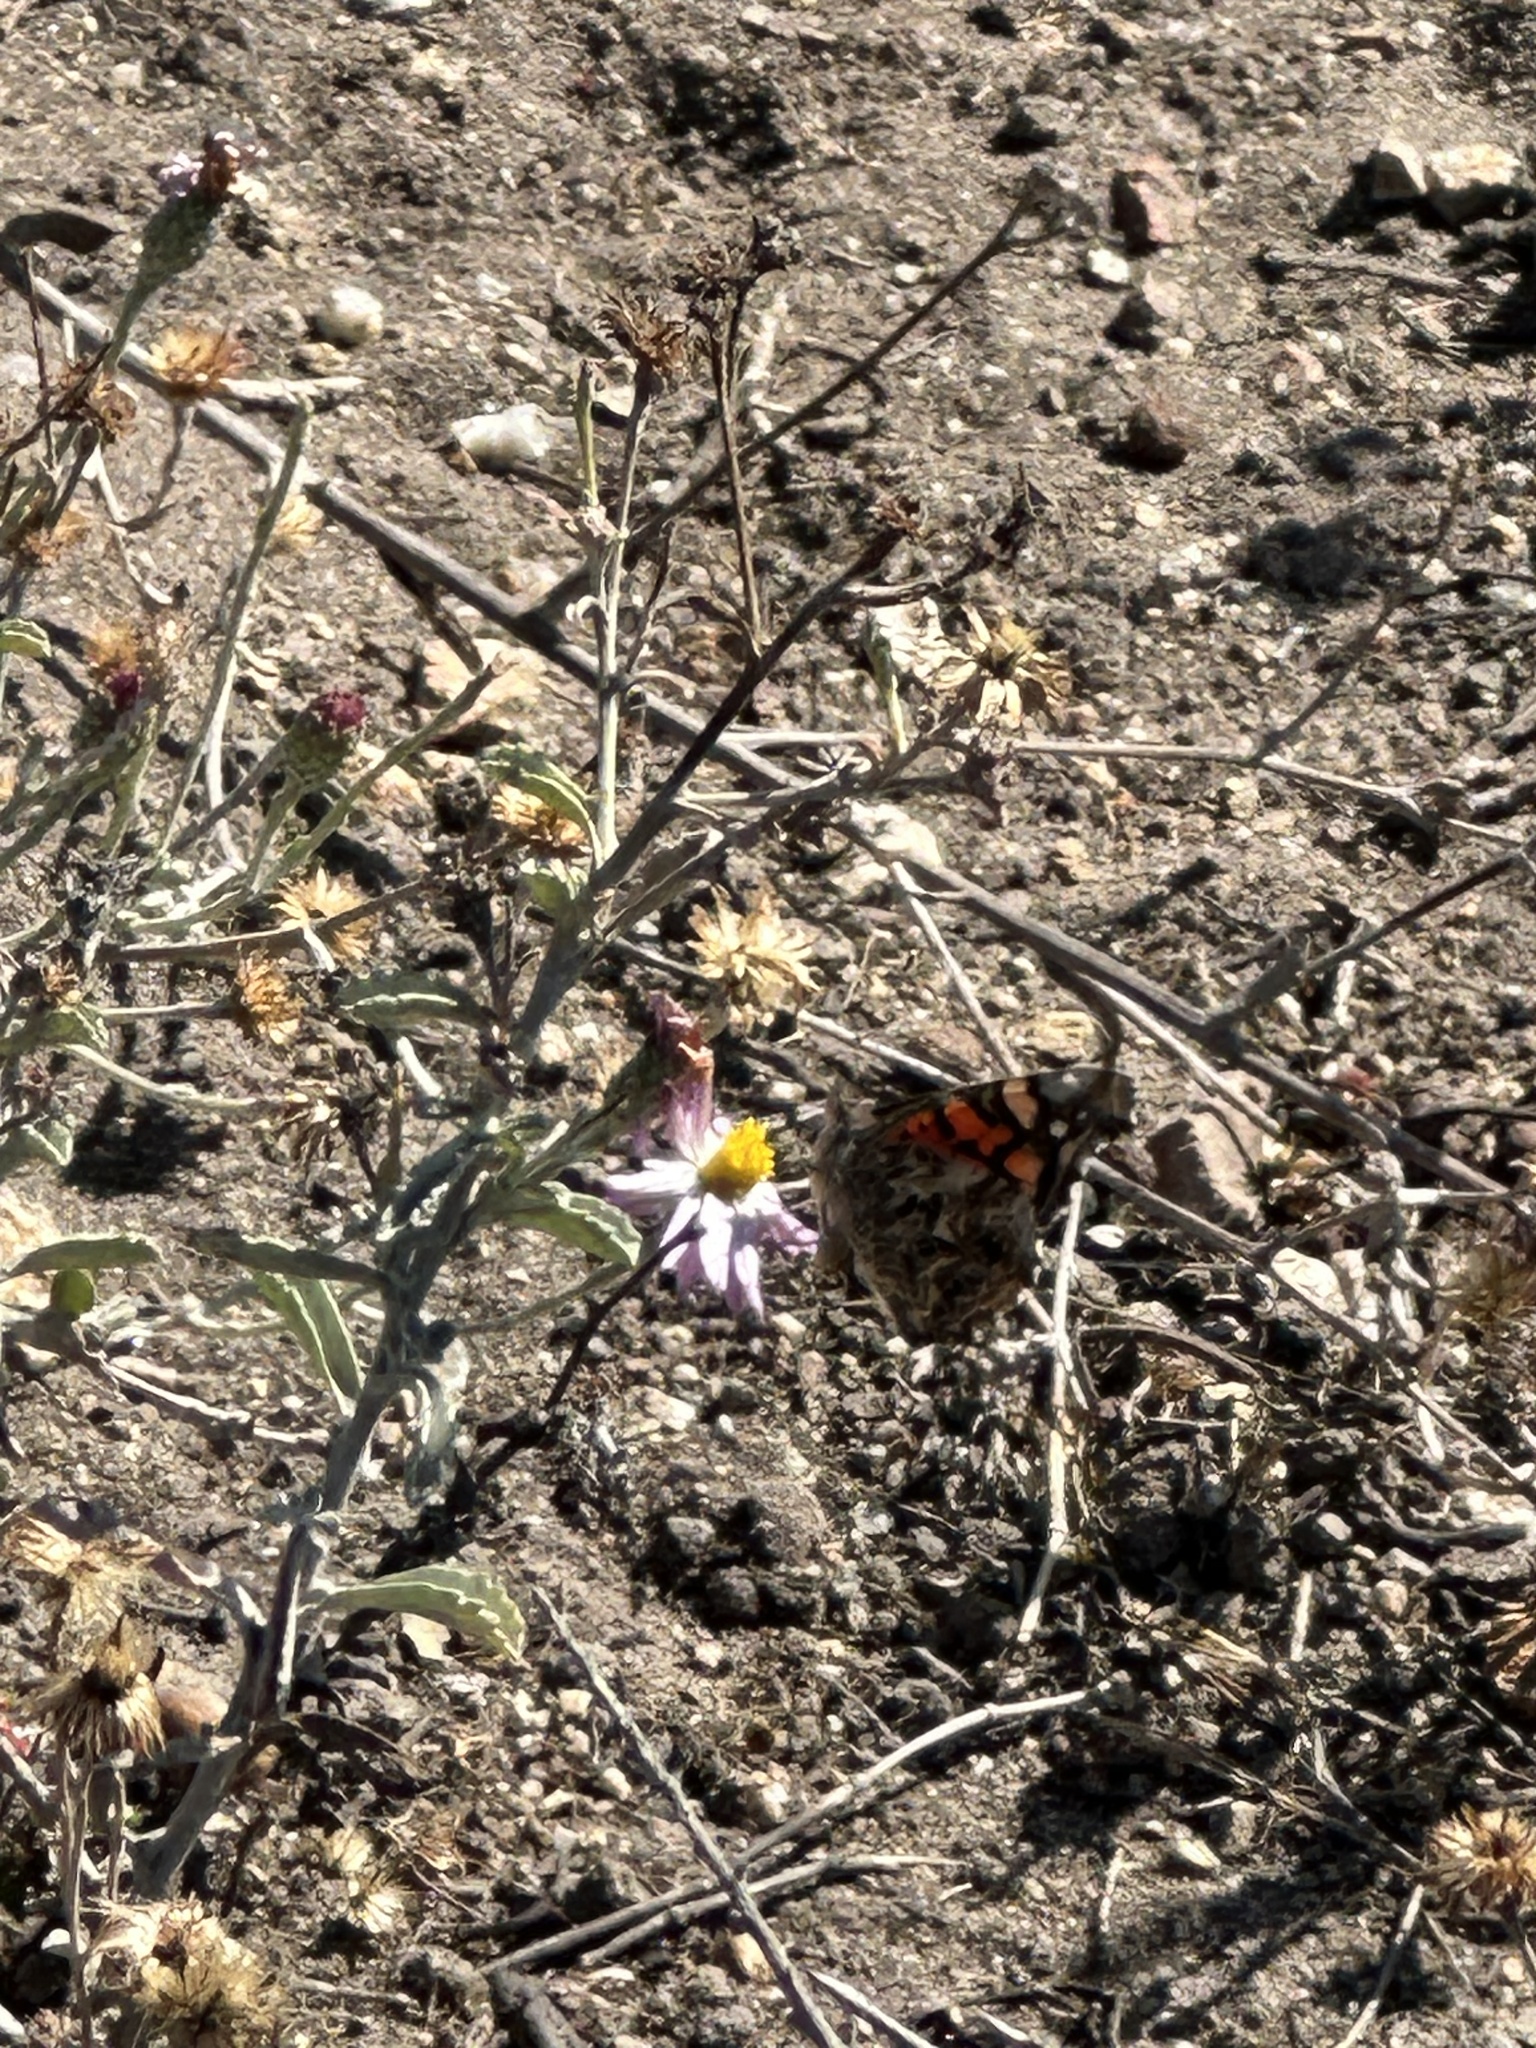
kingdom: Animalia
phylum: Arthropoda
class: Insecta
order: Lepidoptera
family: Nymphalidae
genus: Vanessa
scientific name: Vanessa annabella
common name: West coast lady
